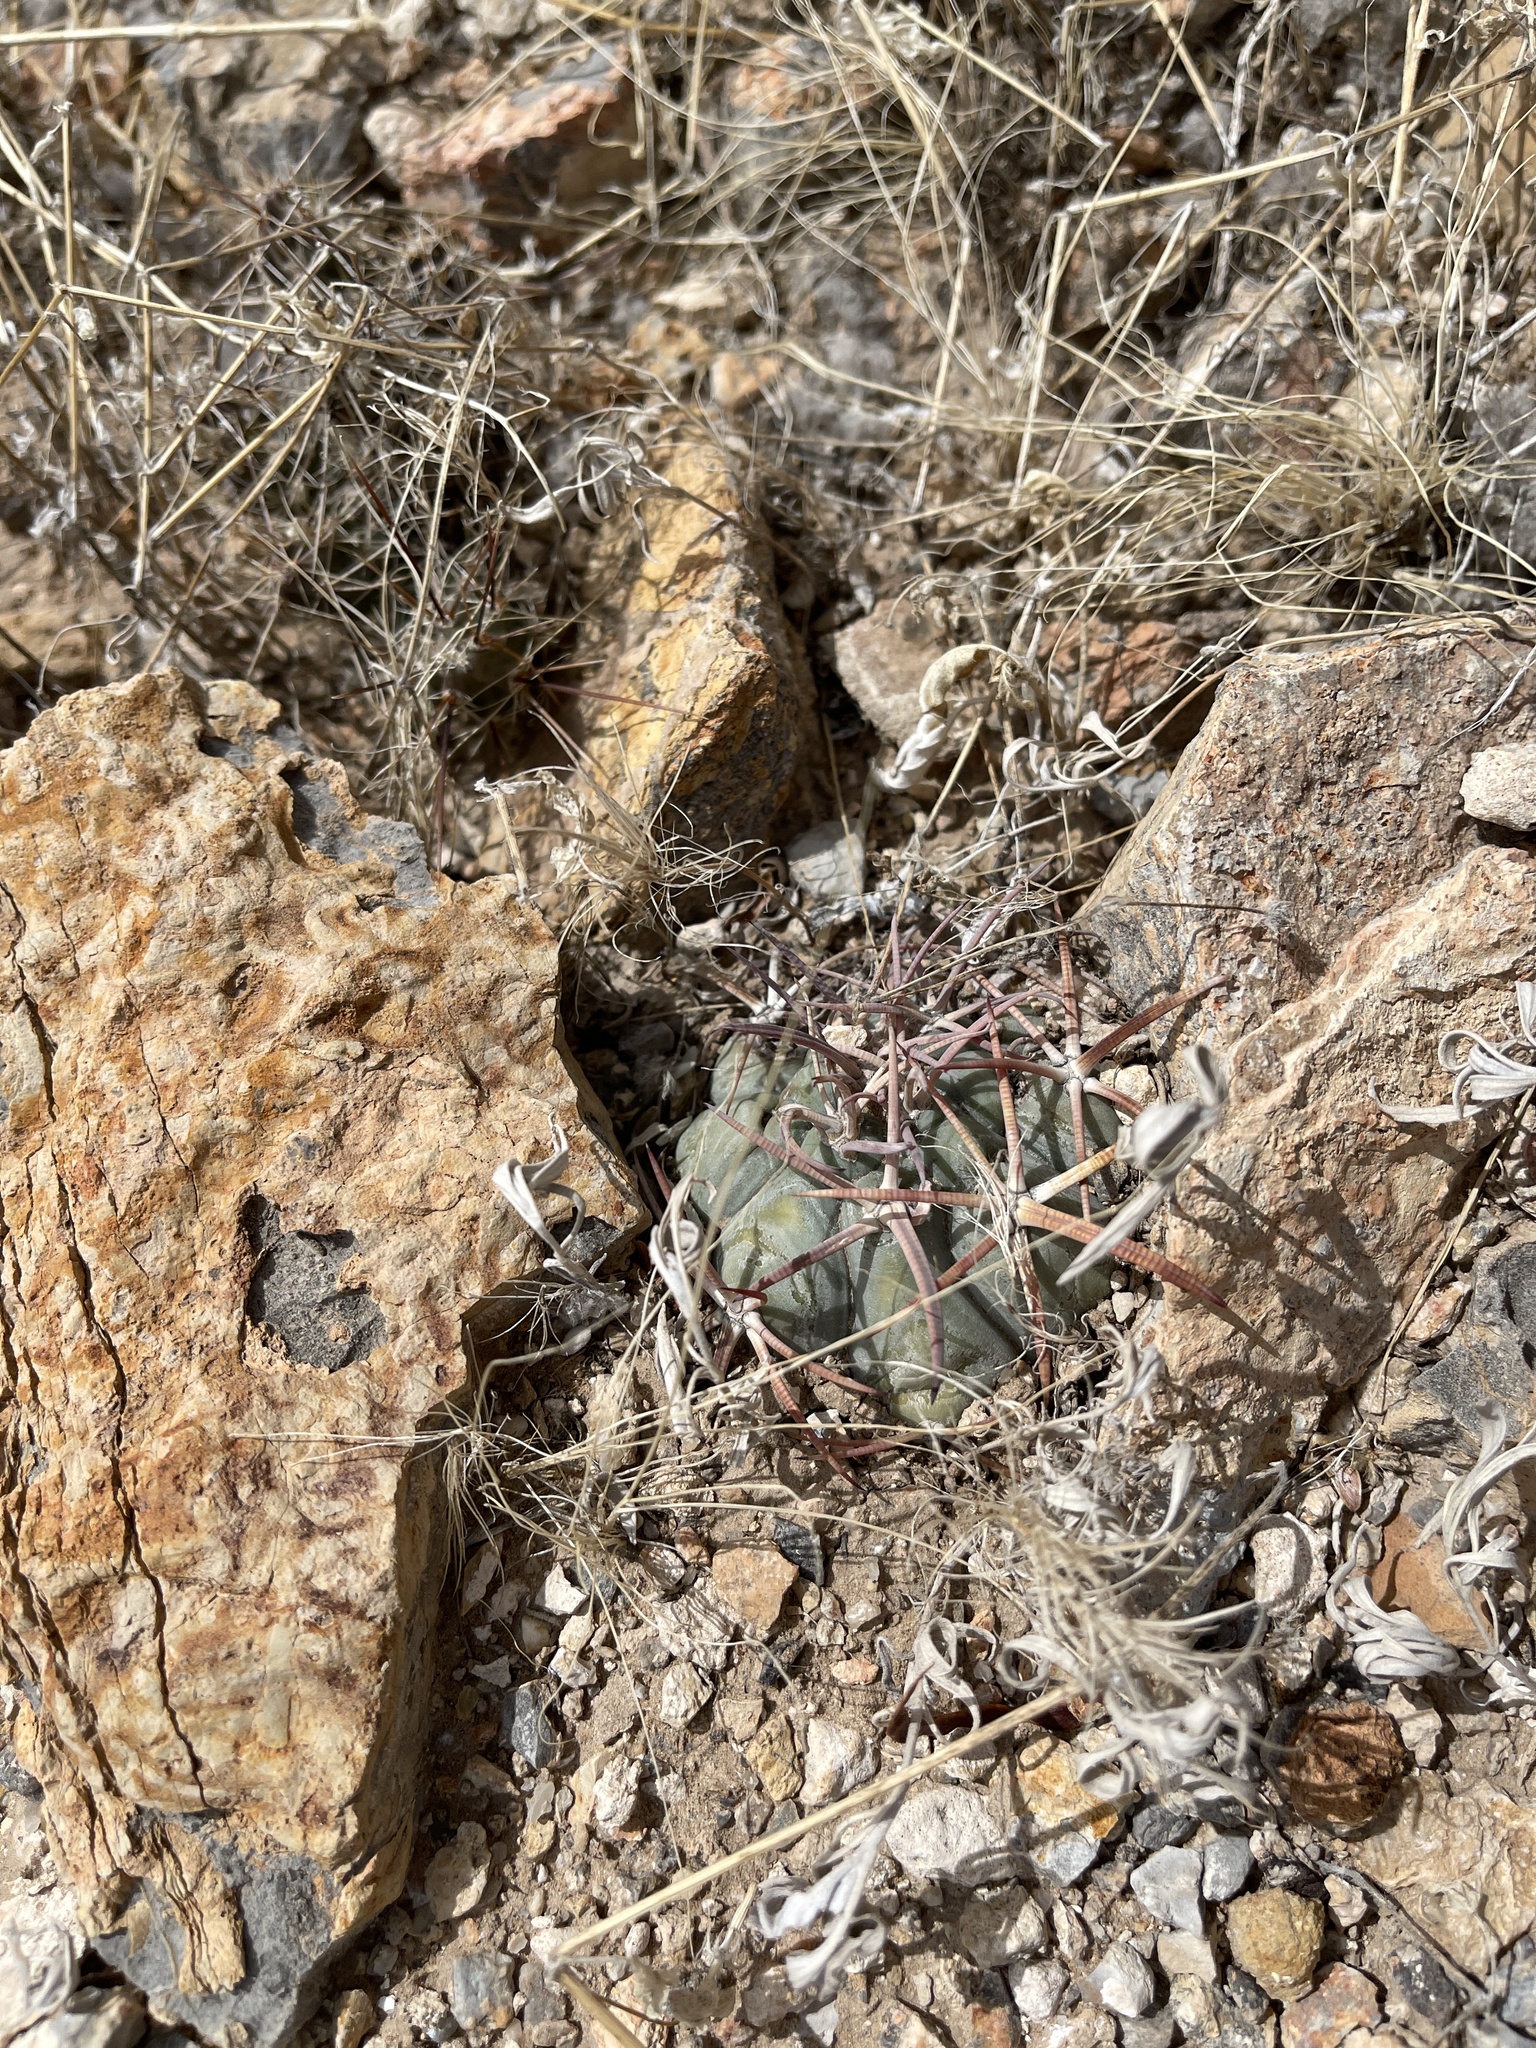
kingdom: Plantae
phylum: Tracheophyta
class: Magnoliopsida
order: Caryophyllales
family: Cactaceae
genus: Echinocactus
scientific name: Echinocactus horizonthalonius
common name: Devilshead
